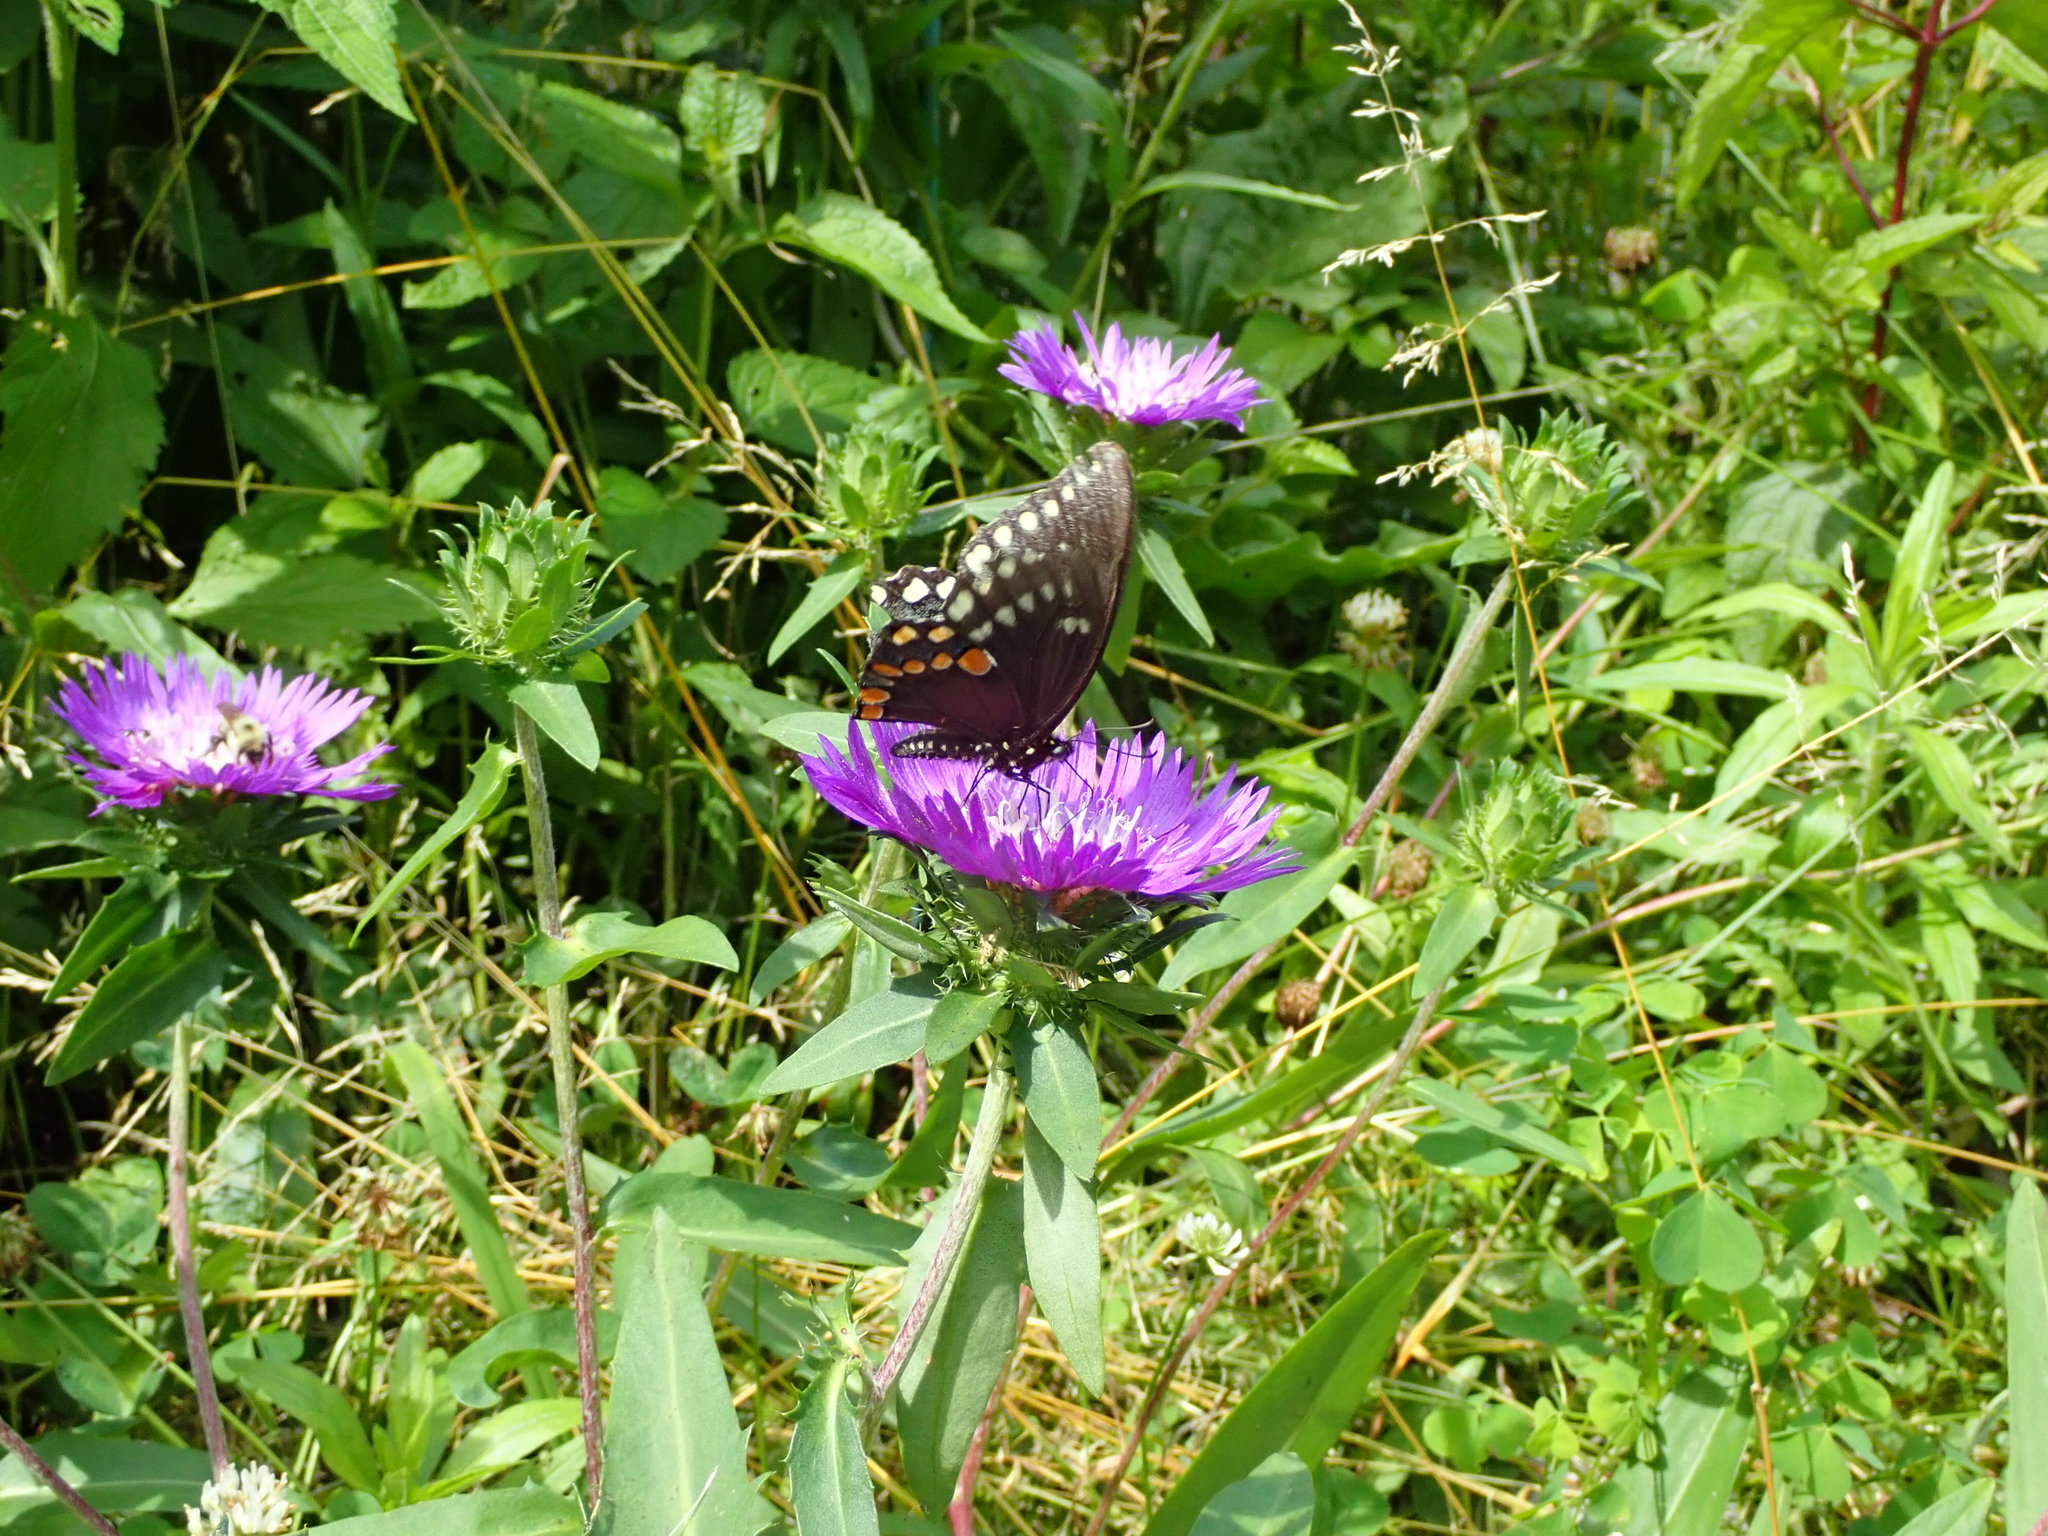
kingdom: Animalia
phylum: Arthropoda
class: Insecta
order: Lepidoptera
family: Papilionidae
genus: Papilio
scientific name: Papilio troilus
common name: Spicebush swallowtail
